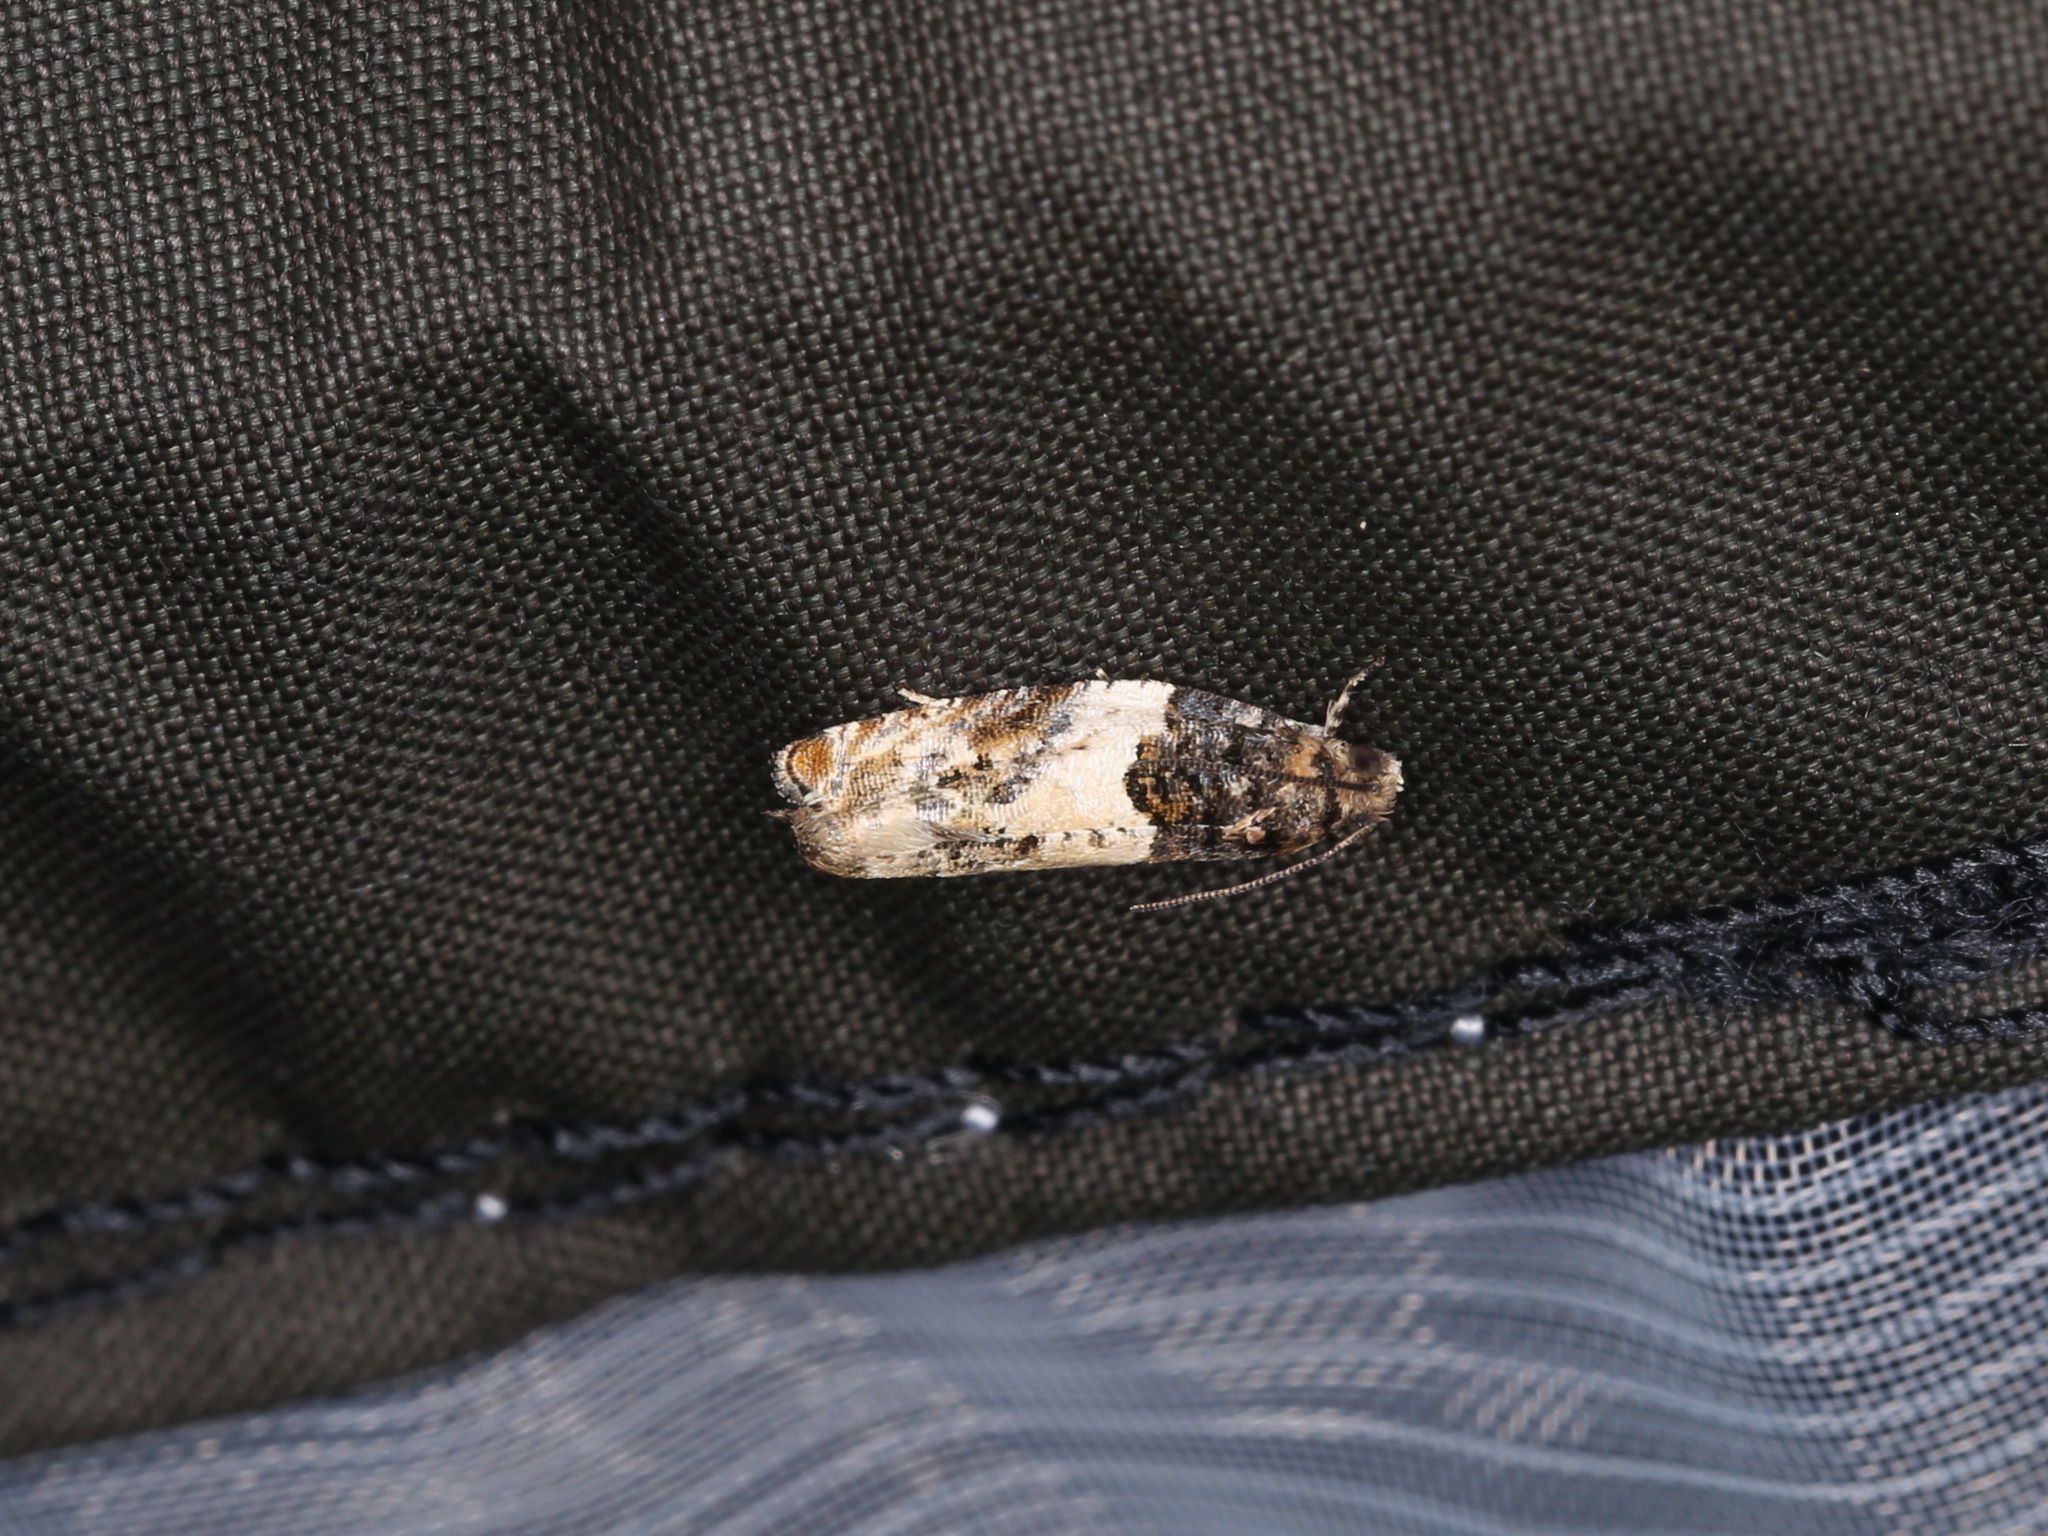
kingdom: Animalia
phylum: Arthropoda
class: Insecta
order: Lepidoptera
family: Tortricidae
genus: Gypsonoma
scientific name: Gypsonoma dealbana
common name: Common cloaked shoot
